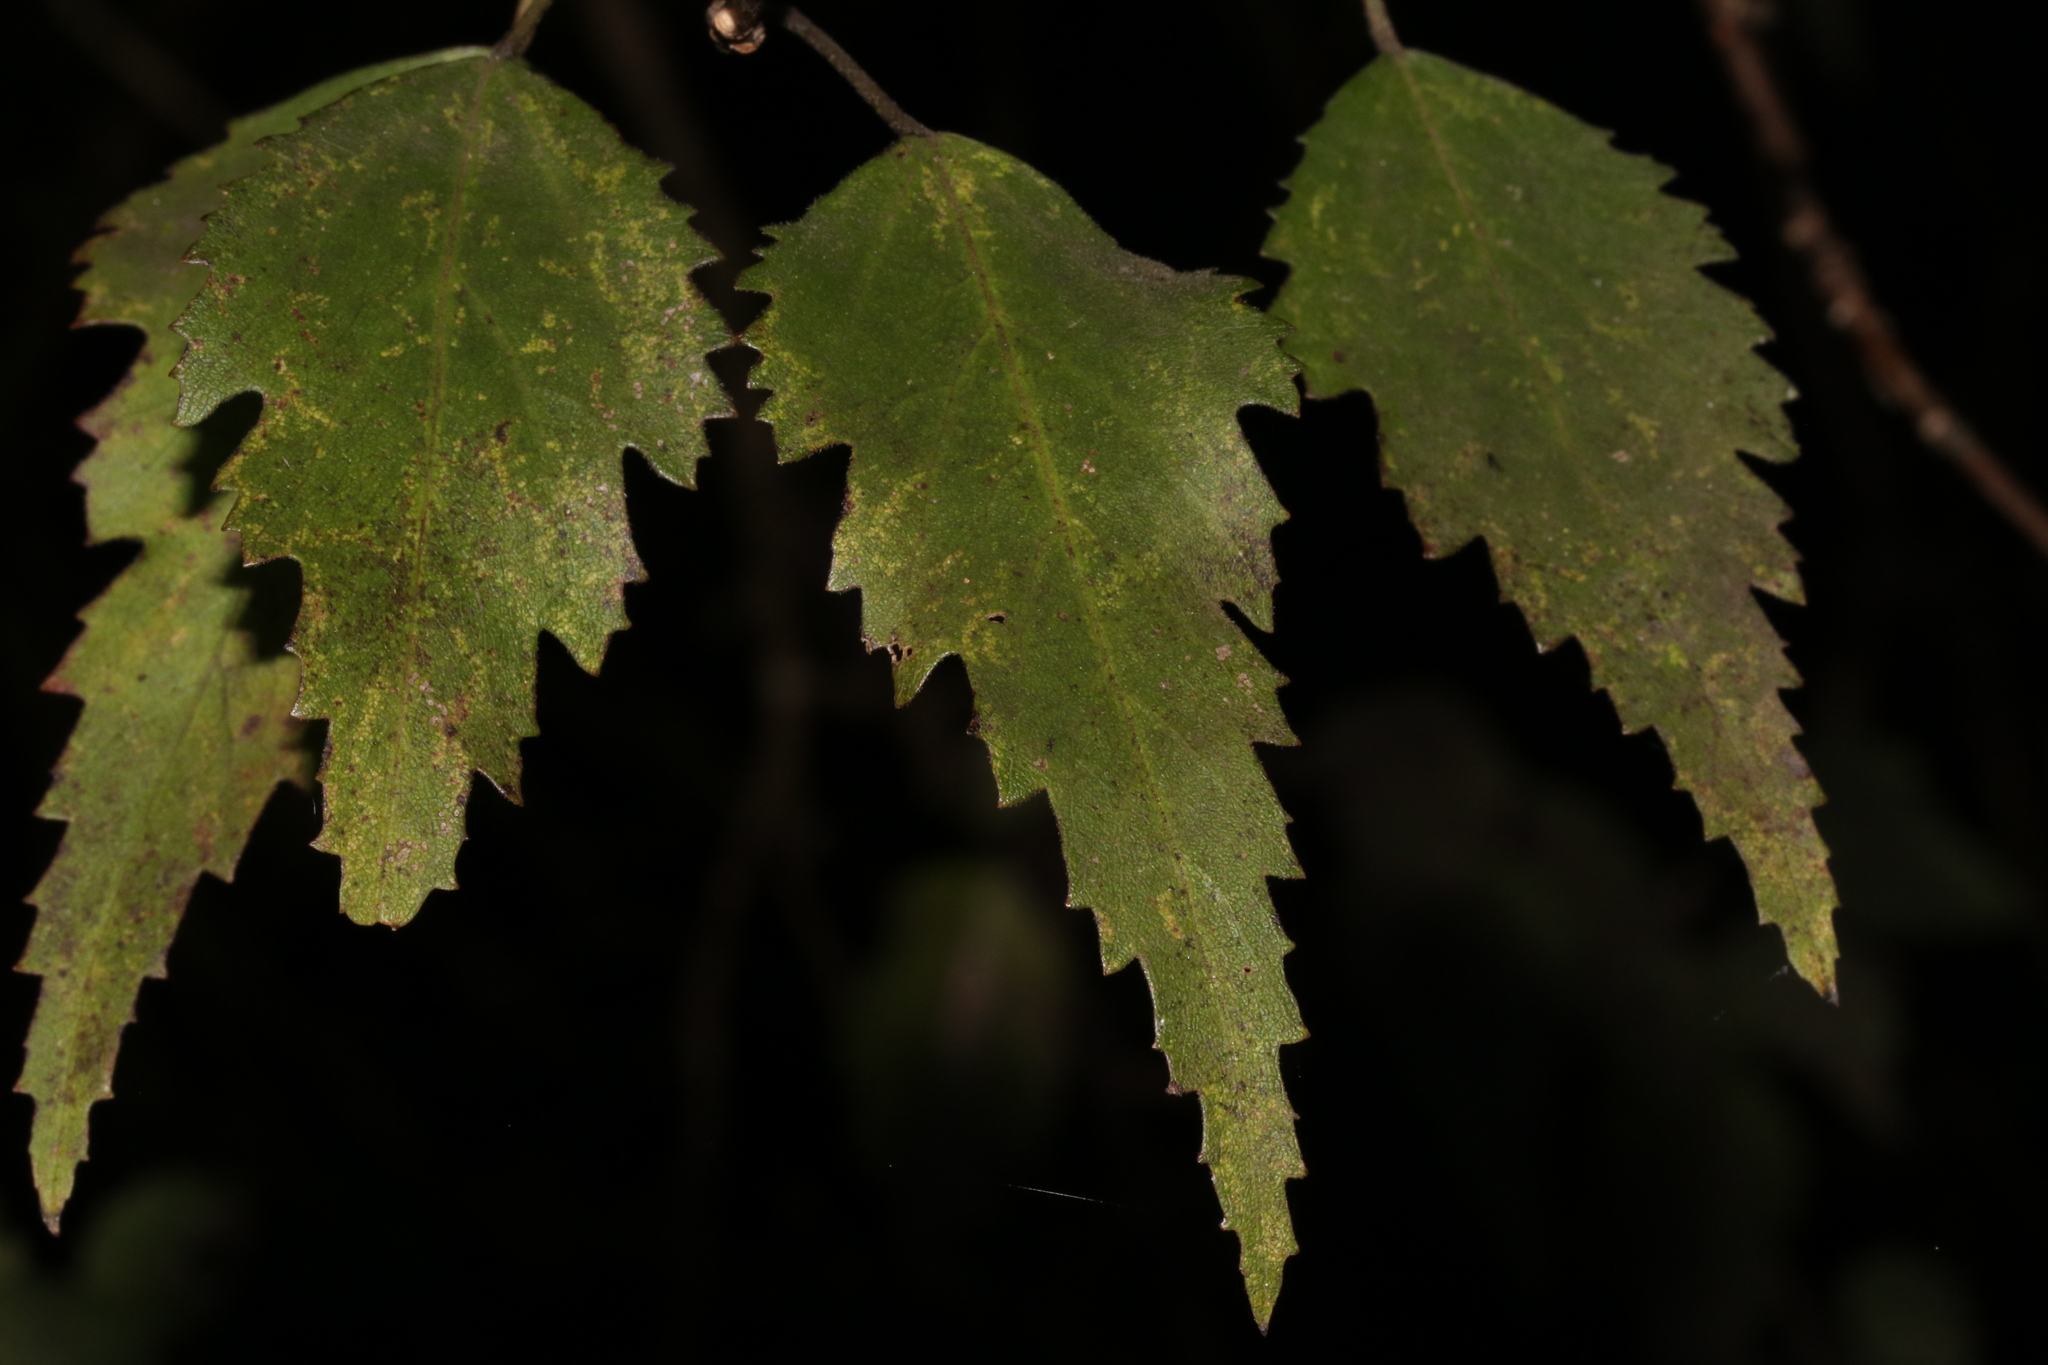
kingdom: Plantae
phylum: Tracheophyta
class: Magnoliopsida
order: Malvales
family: Malvaceae
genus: Hoheria
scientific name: Hoheria sexstylosa
